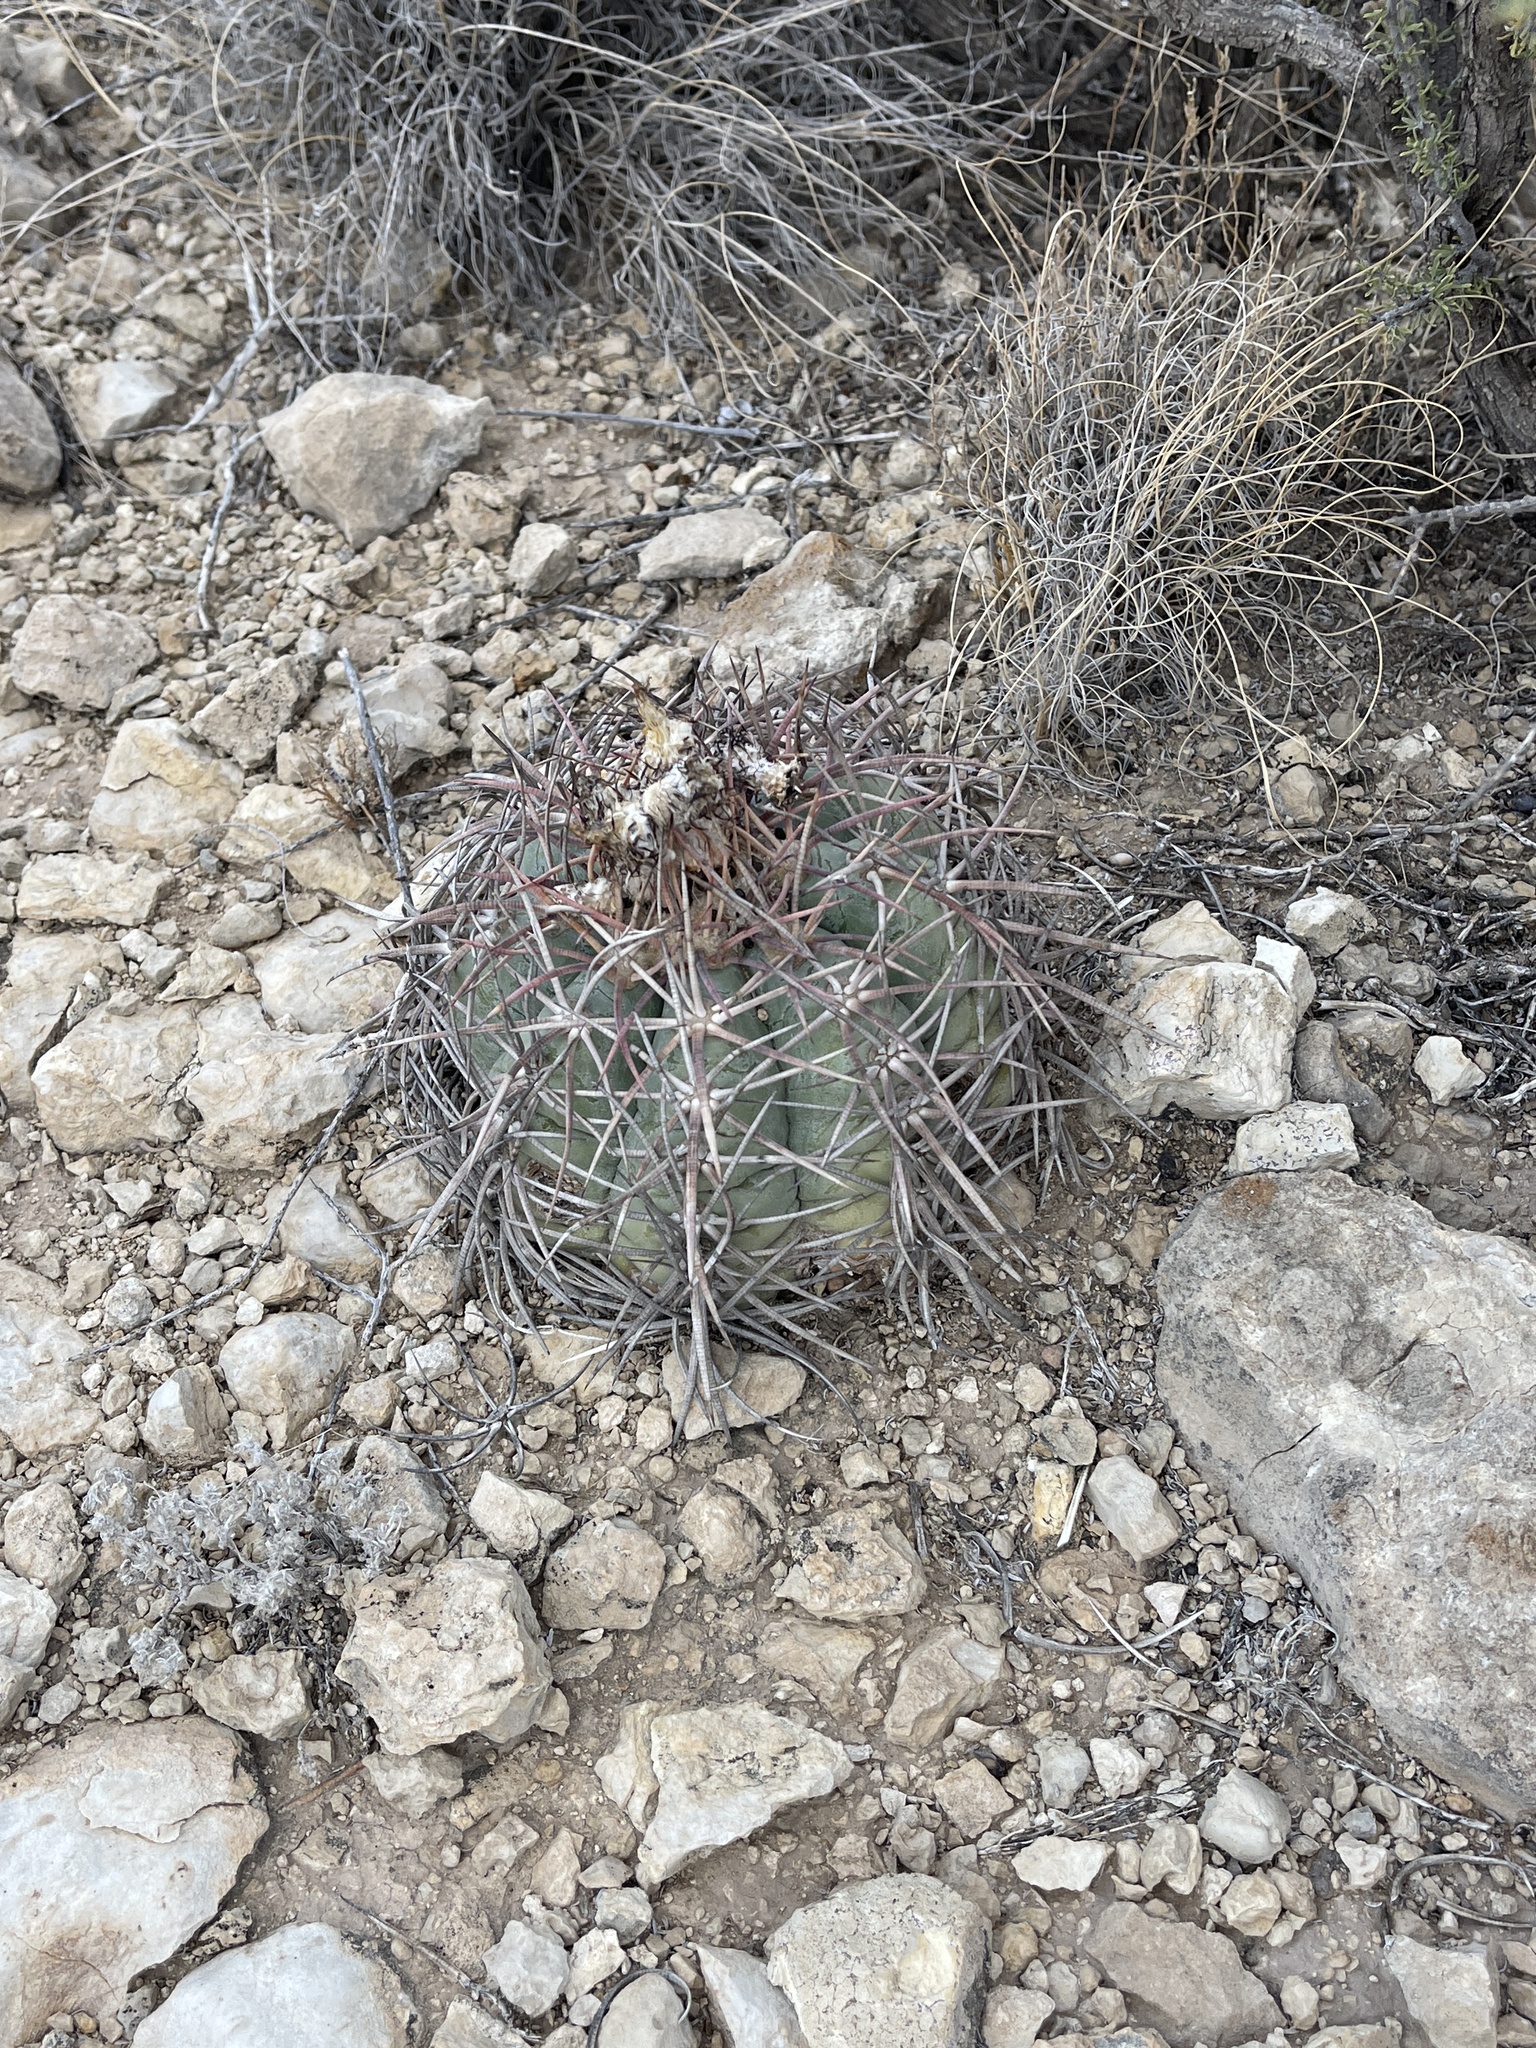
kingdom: Plantae
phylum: Tracheophyta
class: Magnoliopsida
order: Caryophyllales
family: Cactaceae
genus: Echinocactus
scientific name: Echinocactus horizonthalonius
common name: Devilshead
